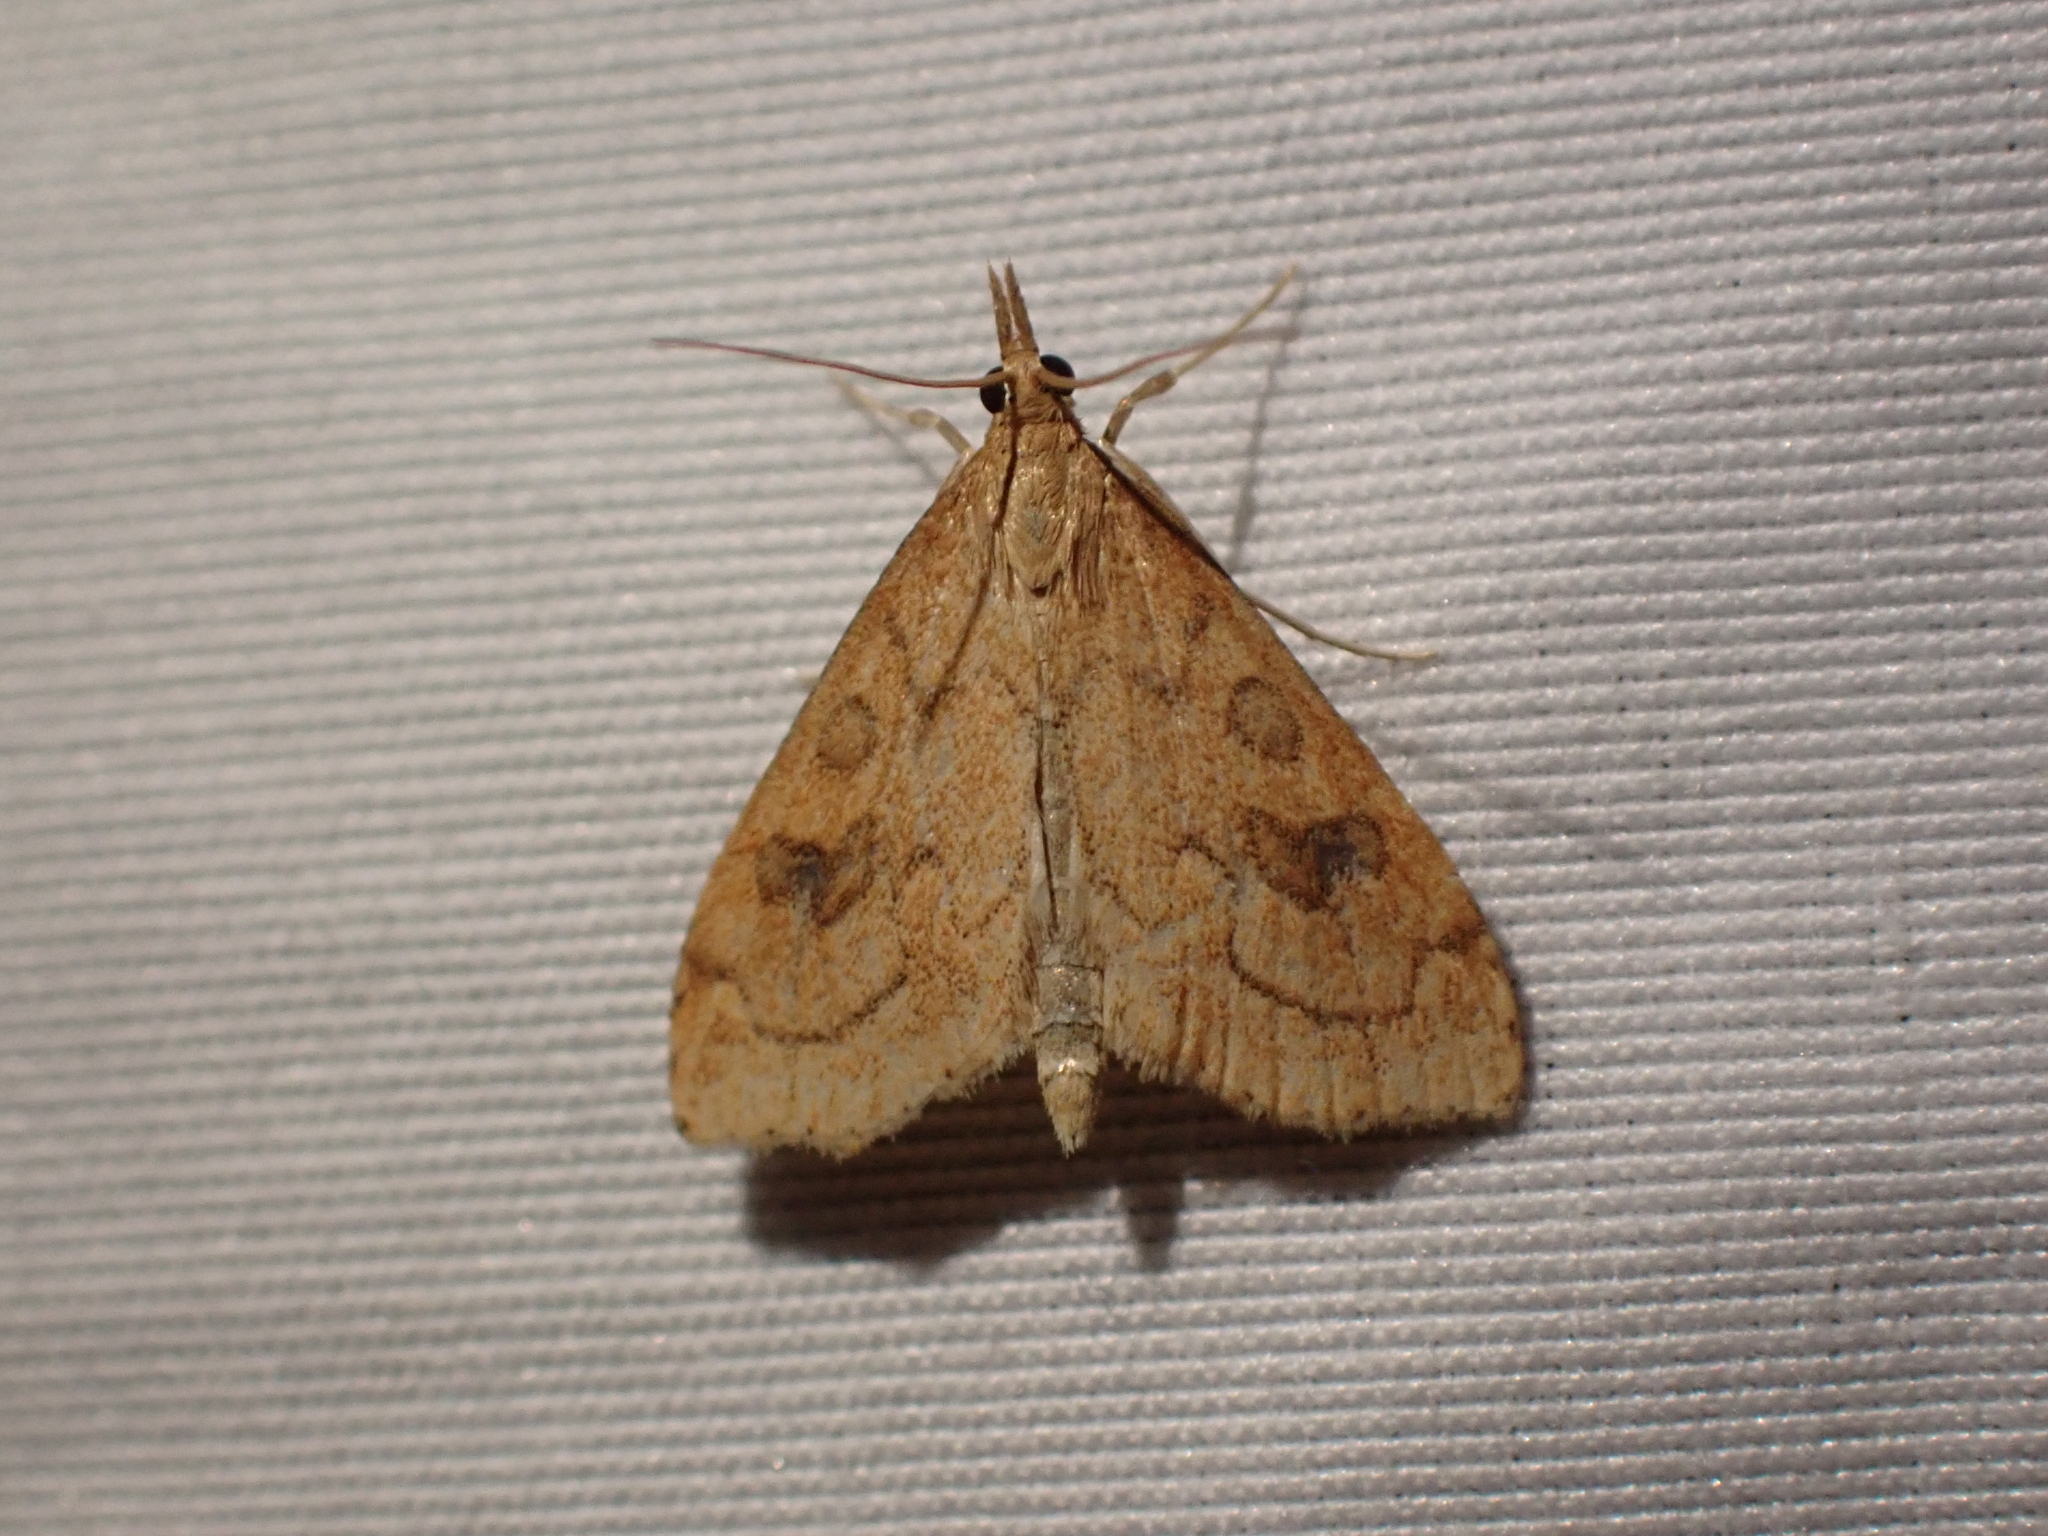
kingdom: Animalia
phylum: Arthropoda
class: Insecta
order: Lepidoptera
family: Crambidae
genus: Udea
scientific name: Udea profundalis
